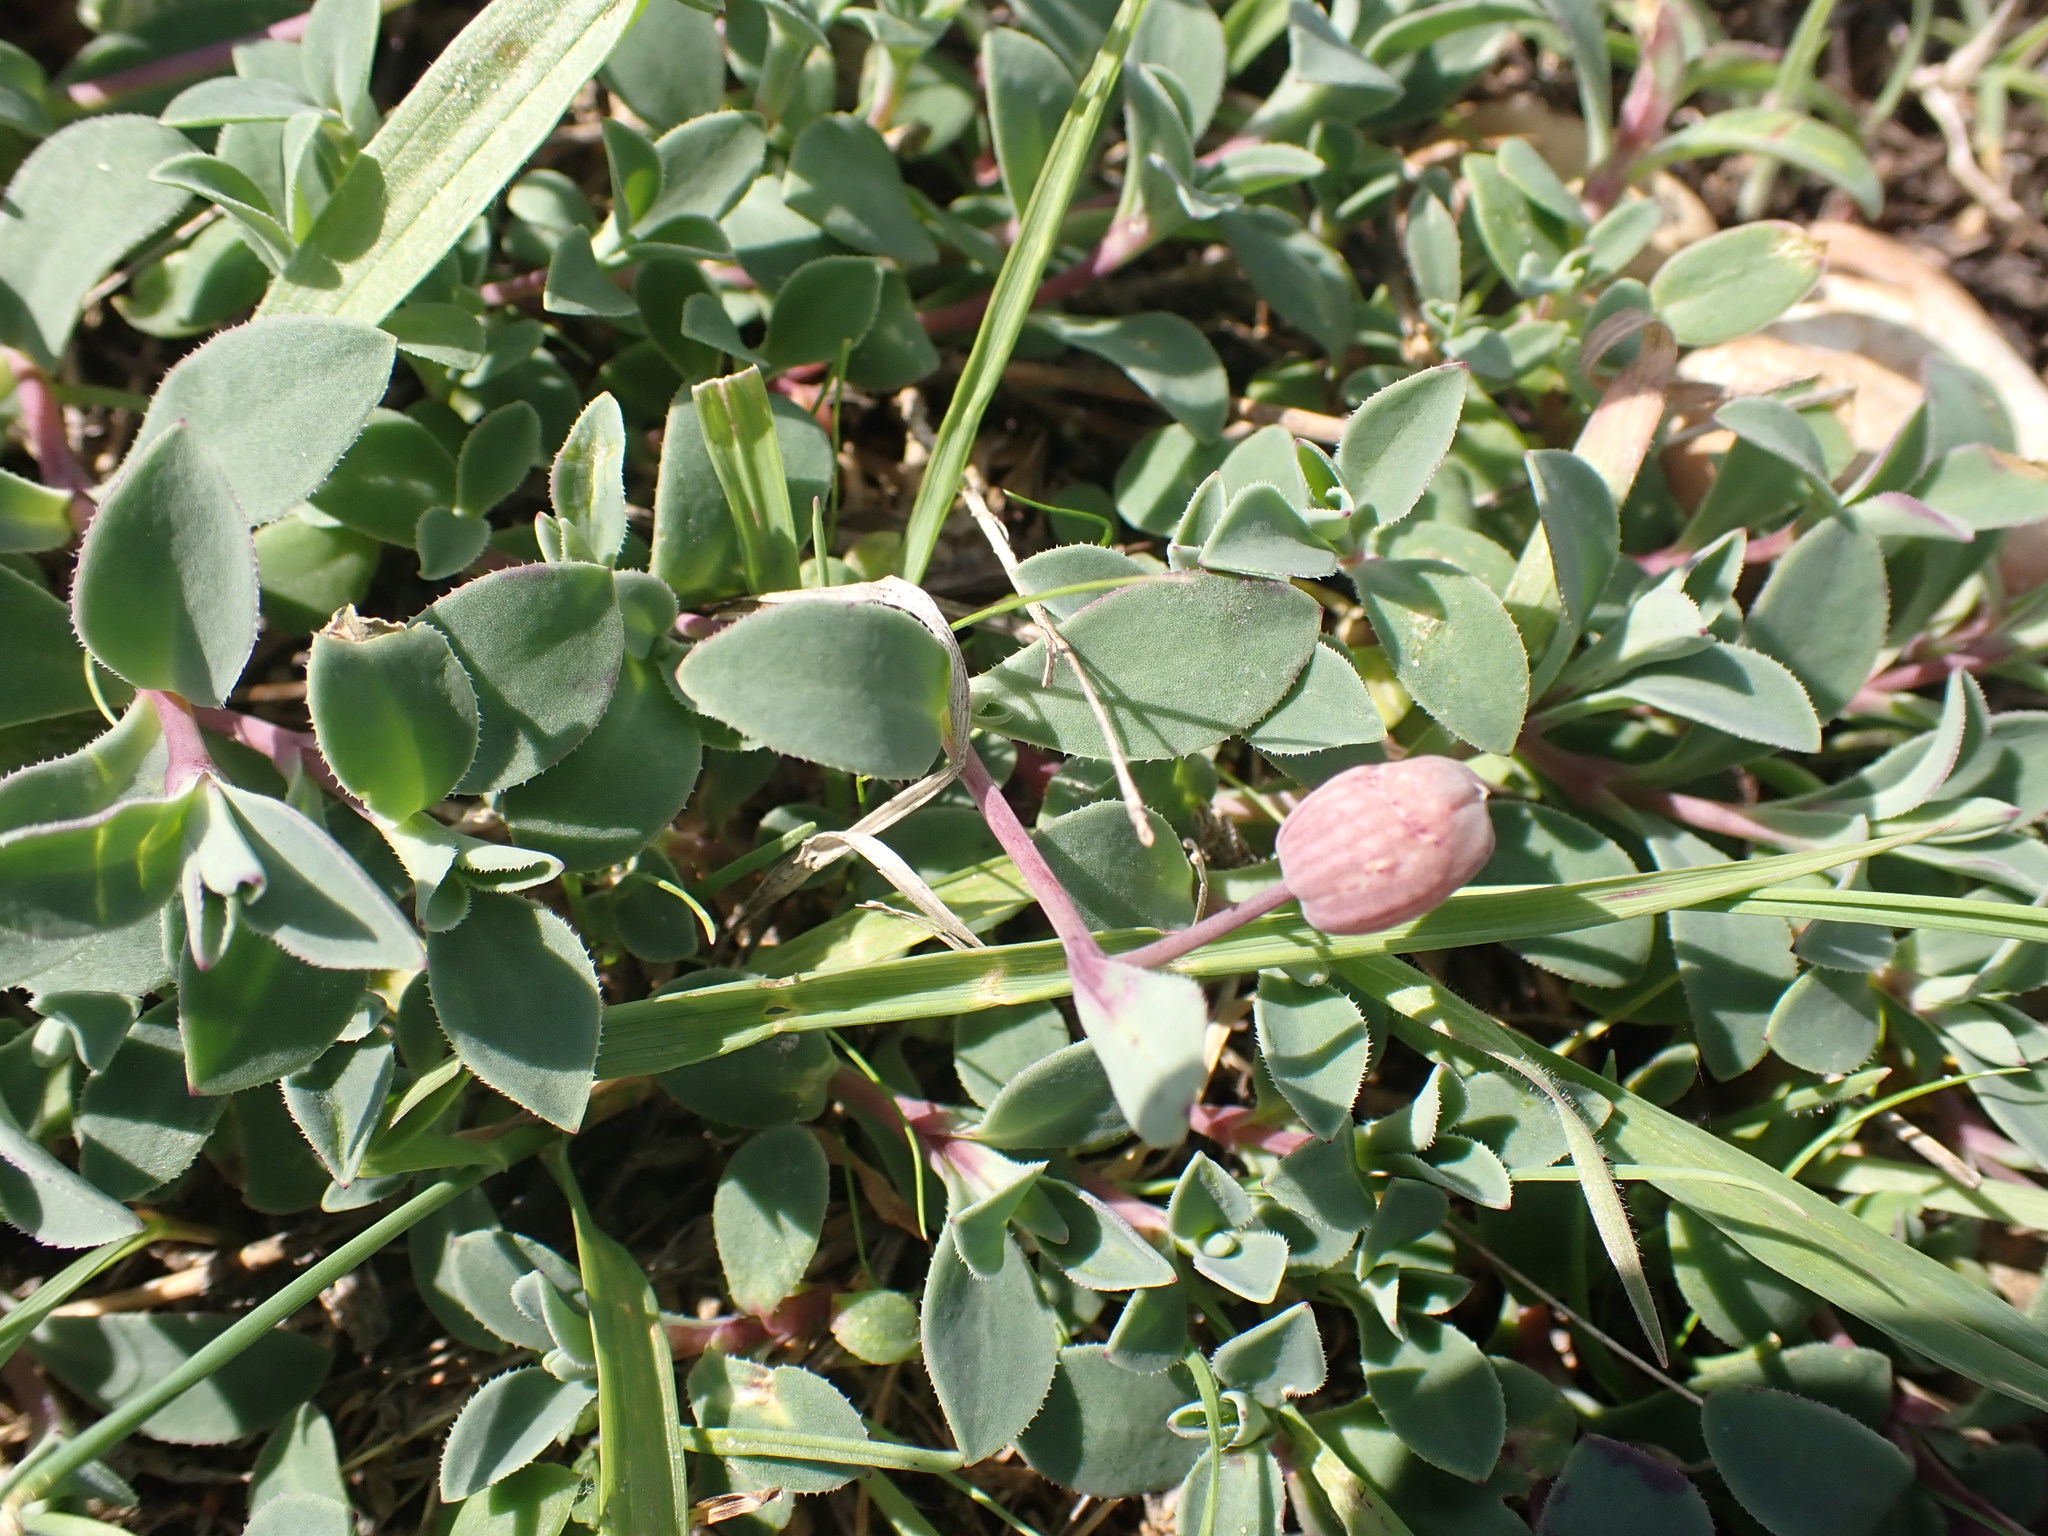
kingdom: Plantae
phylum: Tracheophyta
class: Magnoliopsida
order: Caryophyllales
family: Caryophyllaceae
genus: Silene
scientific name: Silene uniflora
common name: Sea campion
